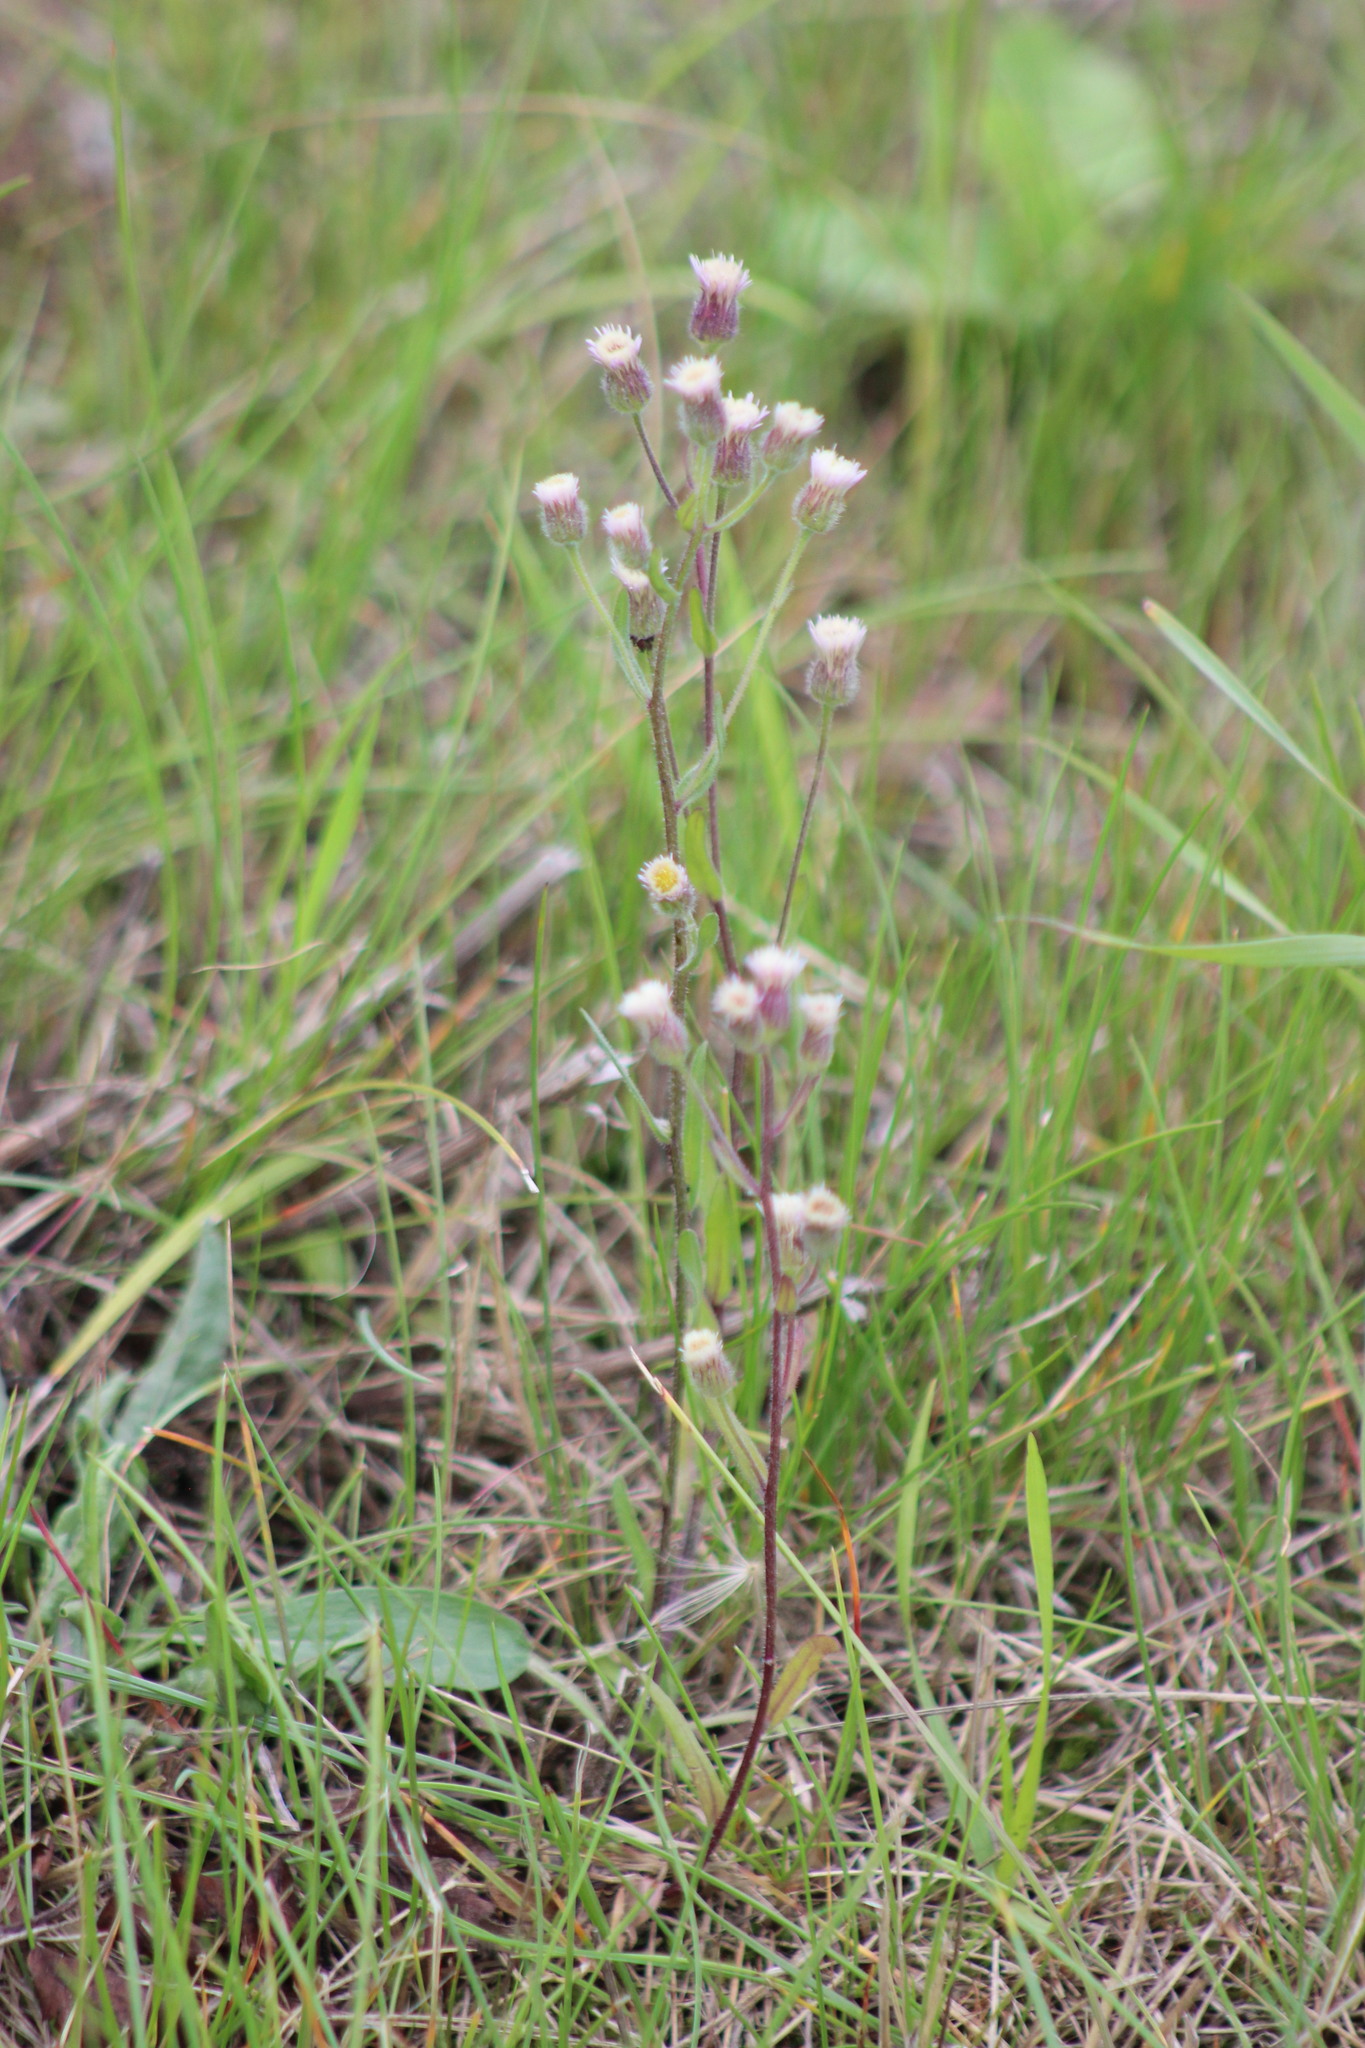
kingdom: Plantae
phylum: Tracheophyta
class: Magnoliopsida
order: Asterales
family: Asteraceae
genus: Erigeron
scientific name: Erigeron acris
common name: Blue fleabane
